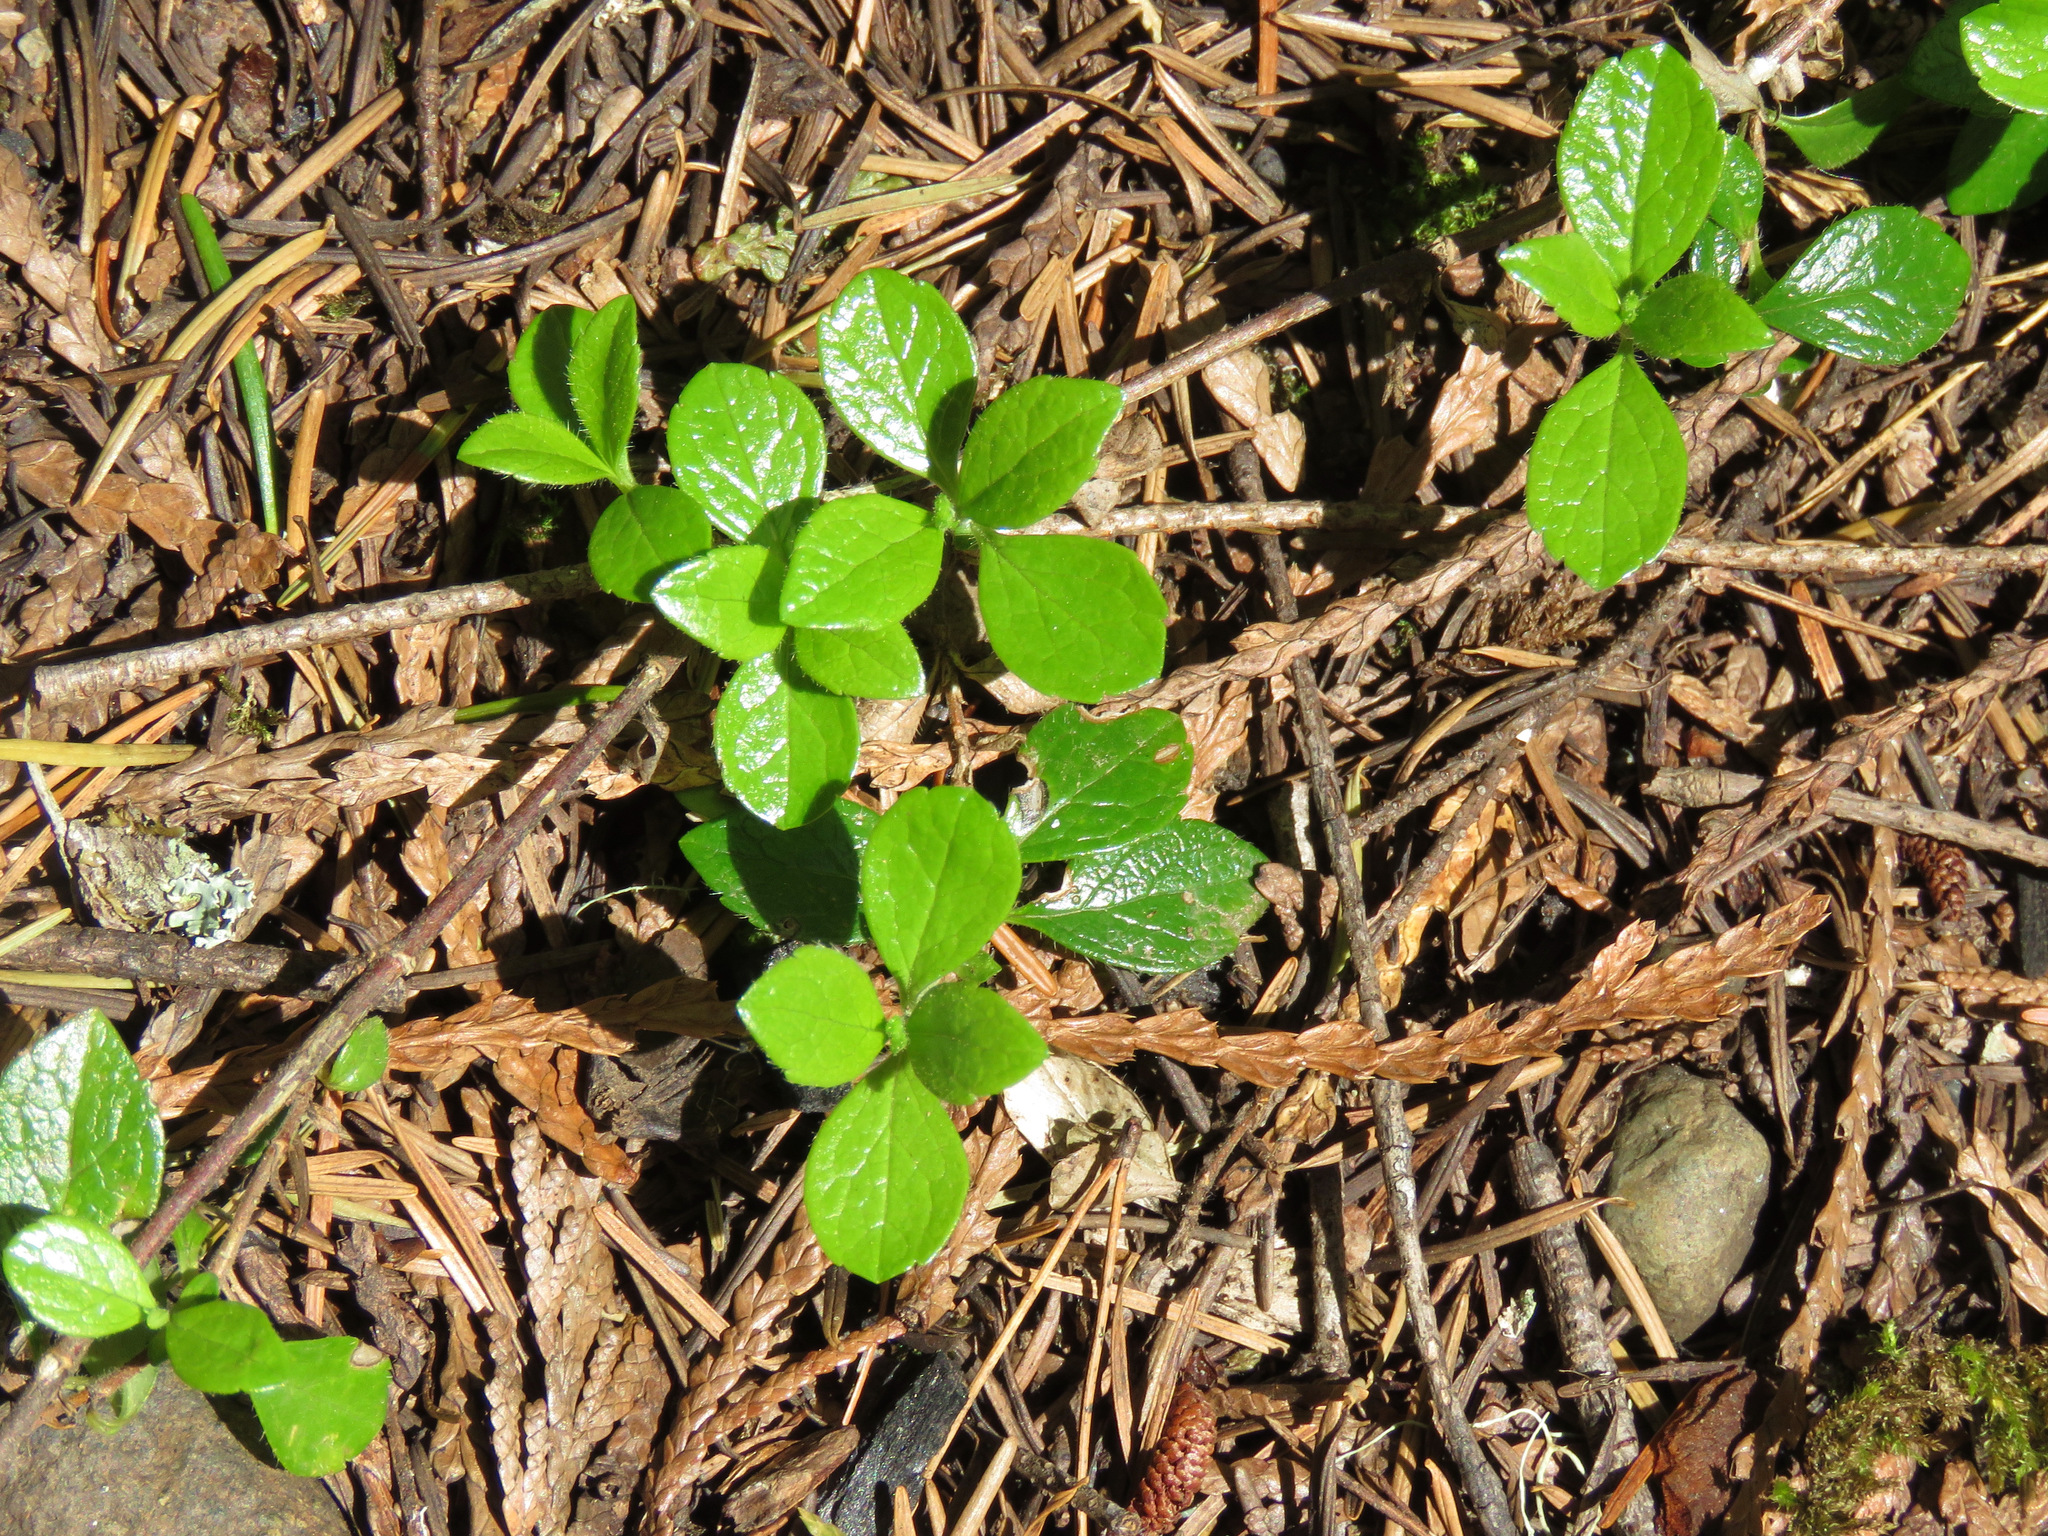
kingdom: Plantae
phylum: Tracheophyta
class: Magnoliopsida
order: Dipsacales
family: Caprifoliaceae
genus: Linnaea
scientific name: Linnaea borealis
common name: Twinflower
